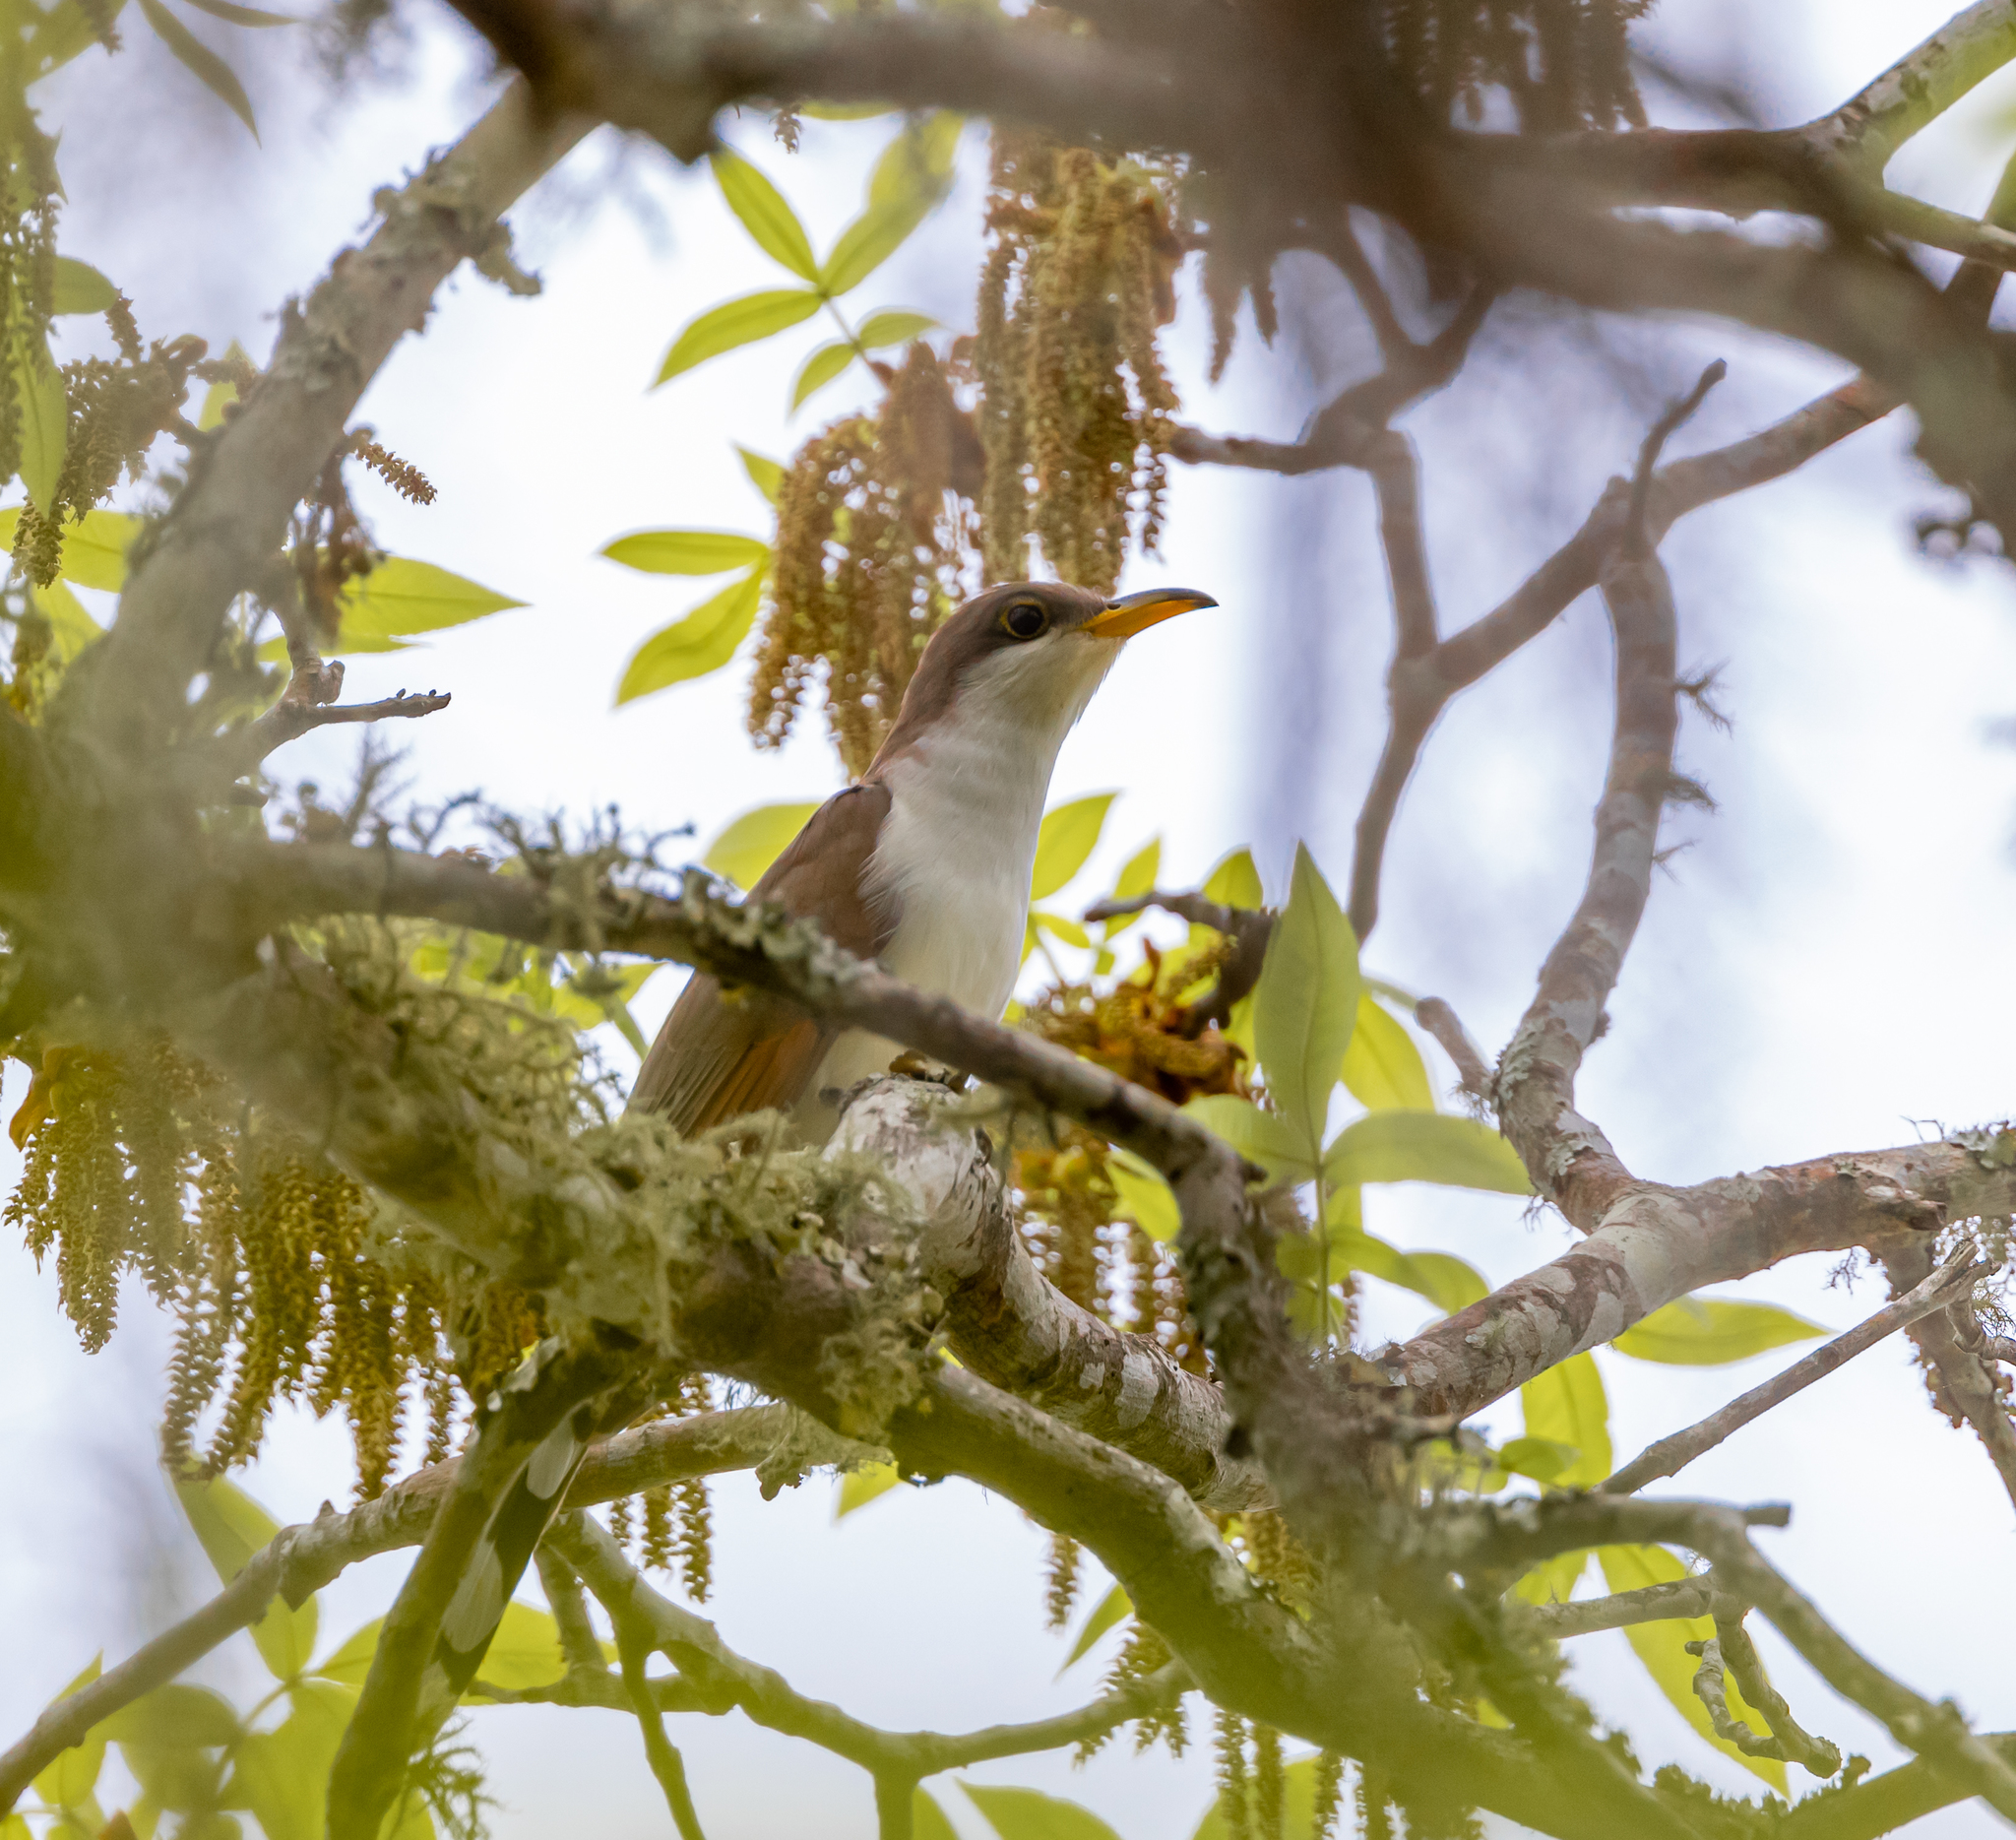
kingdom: Animalia
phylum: Chordata
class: Aves
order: Cuculiformes
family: Cuculidae
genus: Coccyzus
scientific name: Coccyzus americanus
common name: Yellow-billed cuckoo
